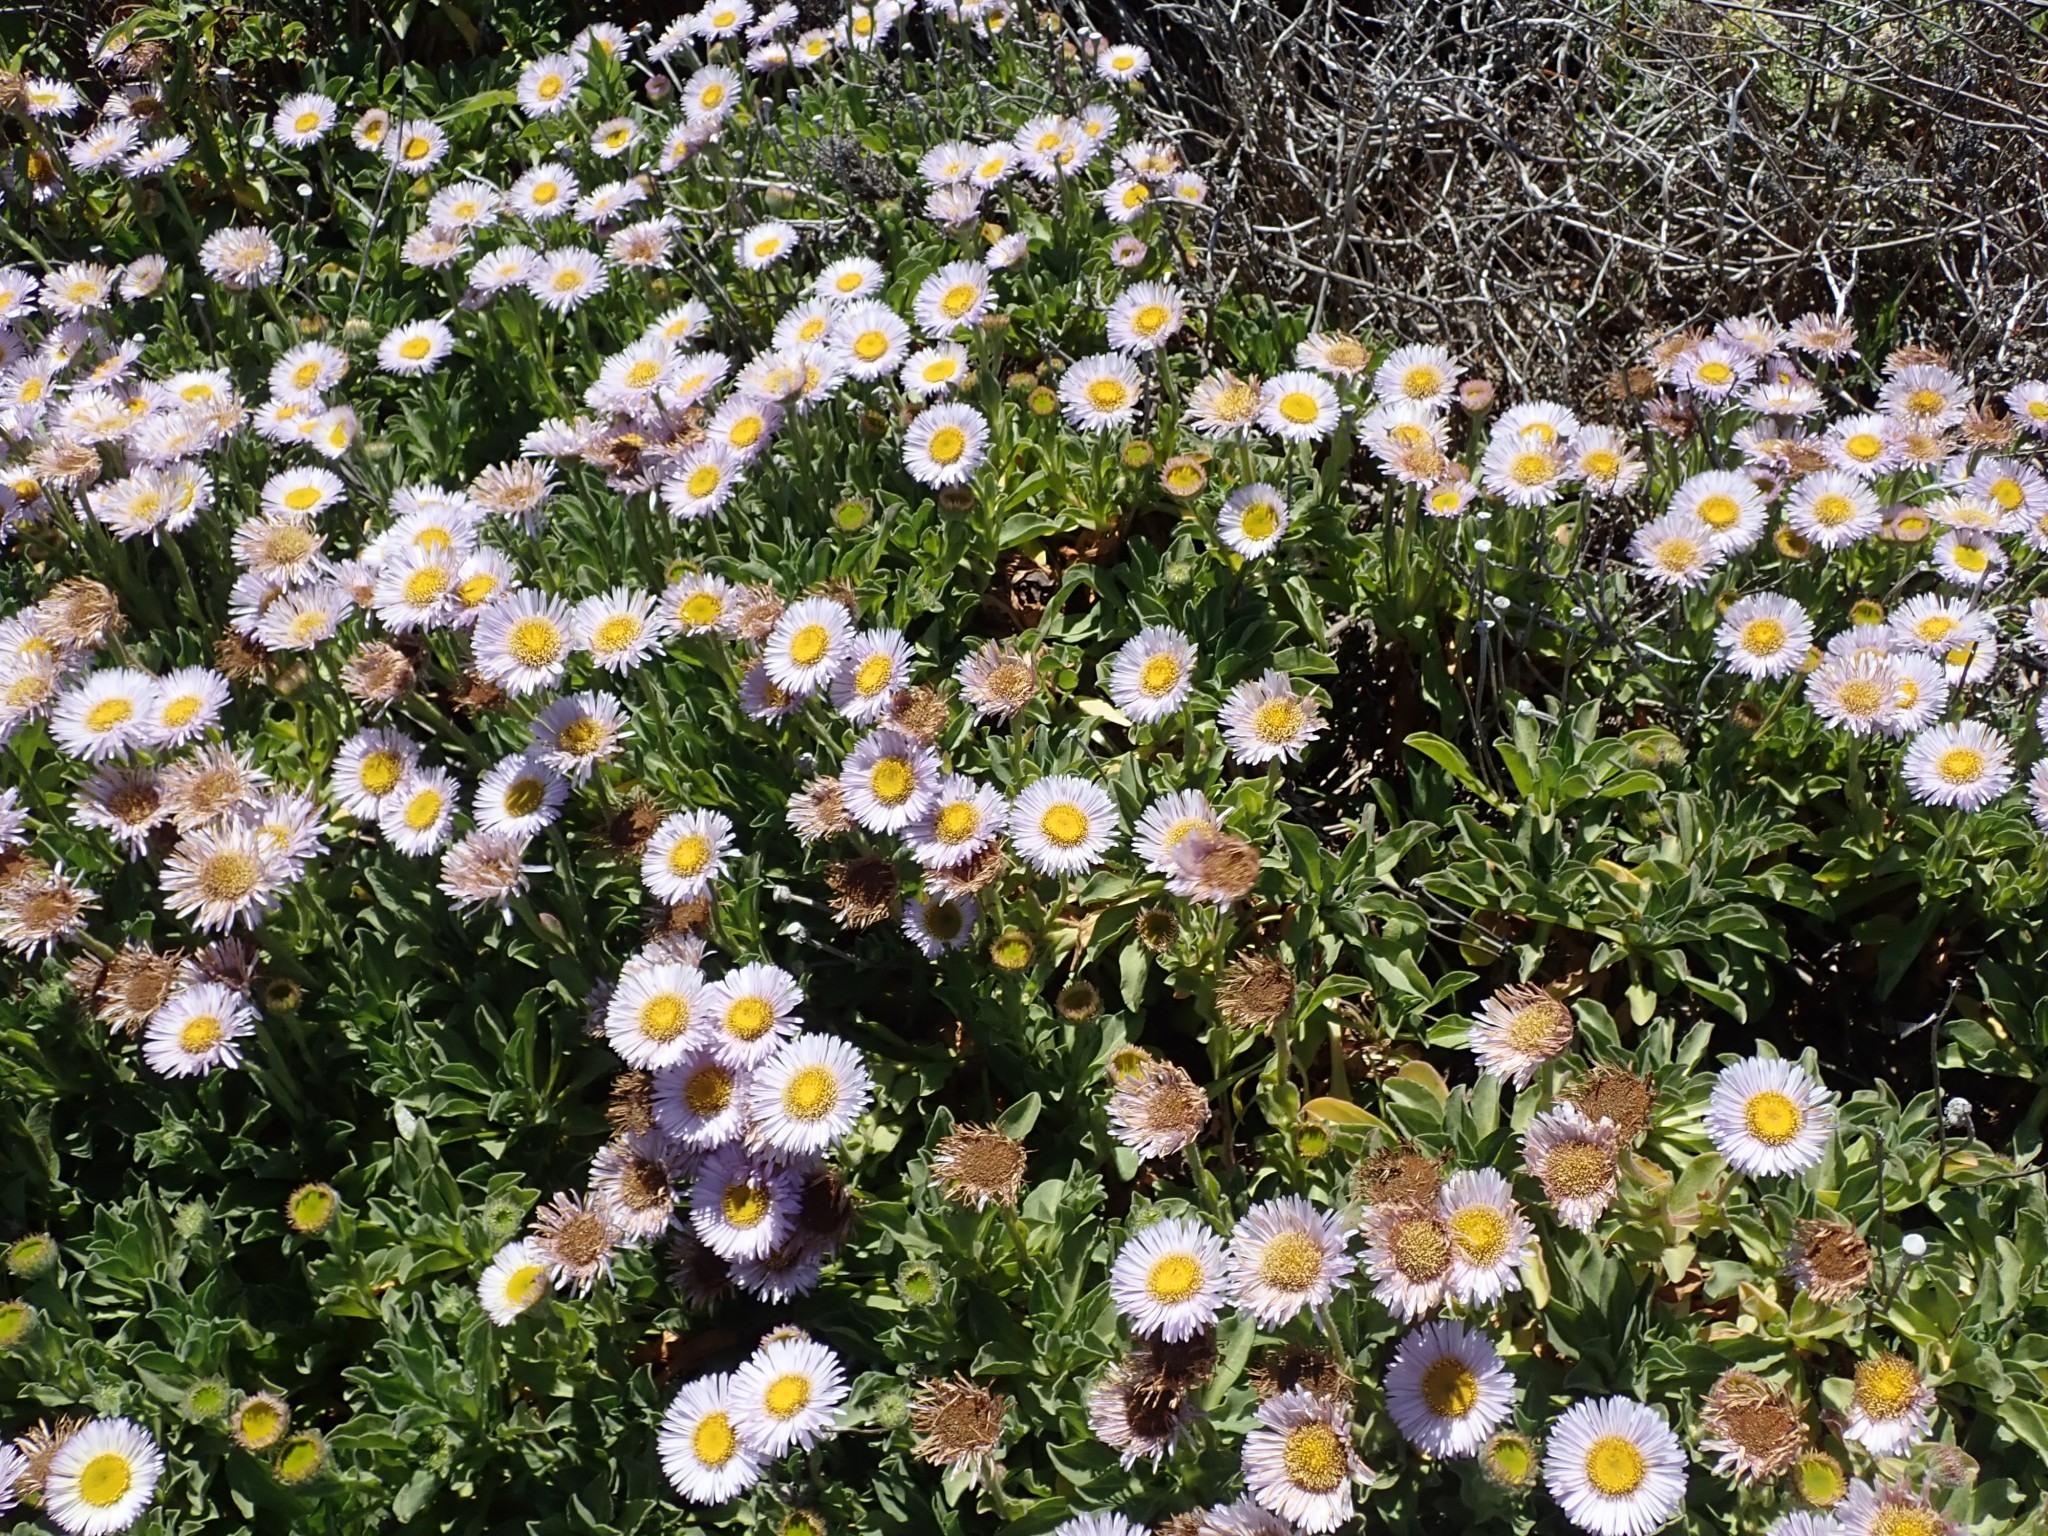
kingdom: Plantae
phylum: Tracheophyta
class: Magnoliopsida
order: Asterales
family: Asteraceae
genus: Erigeron
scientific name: Erigeron glaucus
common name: Seaside daisy
